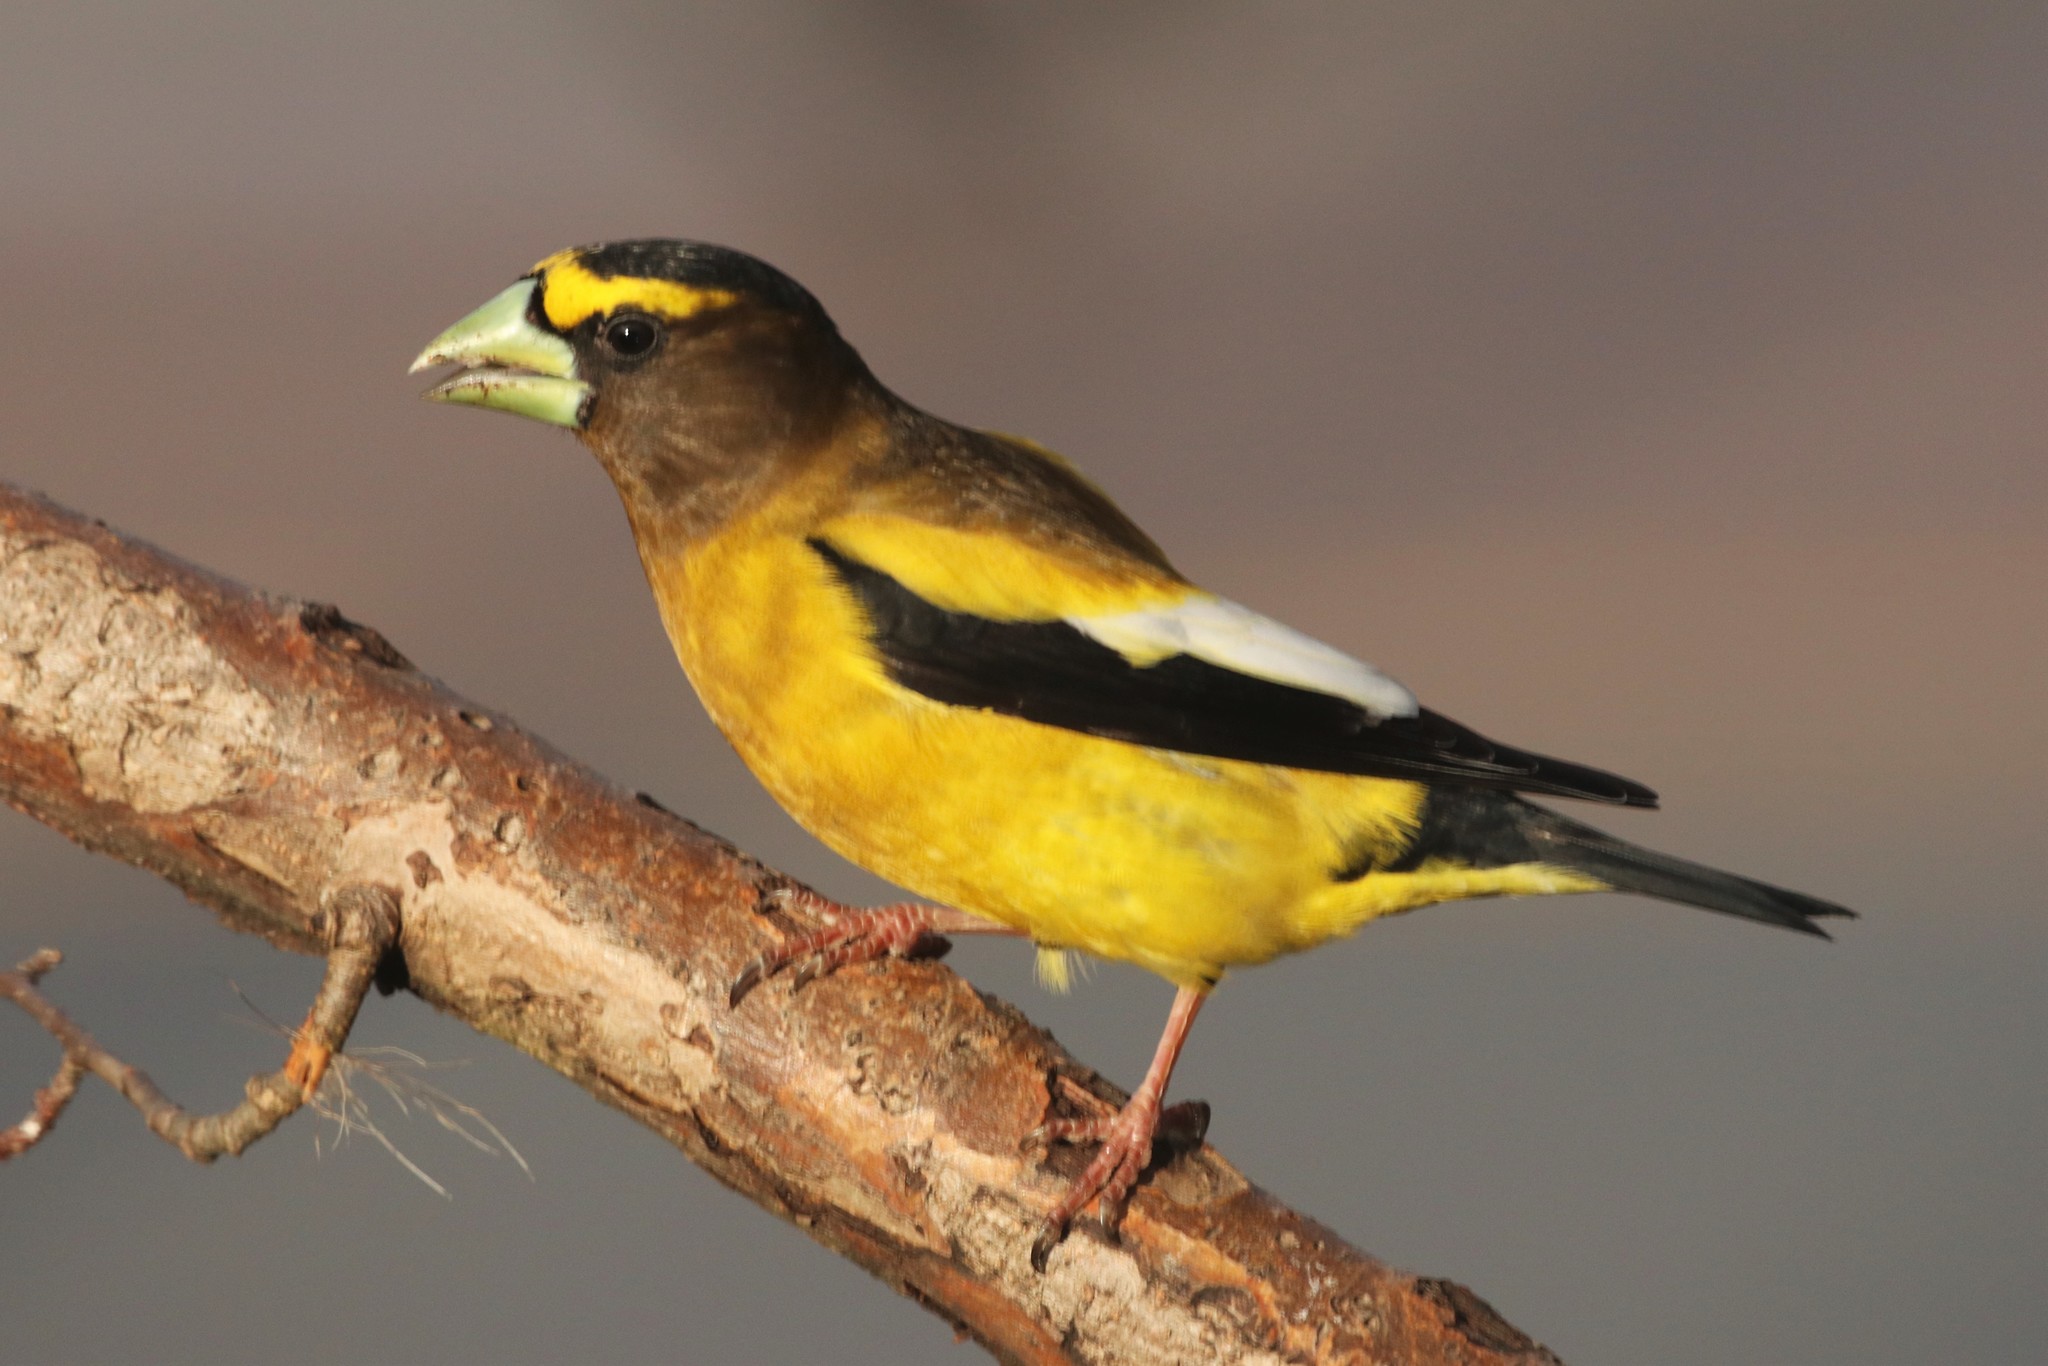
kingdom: Animalia
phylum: Chordata
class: Aves
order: Passeriformes
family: Fringillidae
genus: Hesperiphona
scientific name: Hesperiphona vespertina
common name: Evening grosbeak
